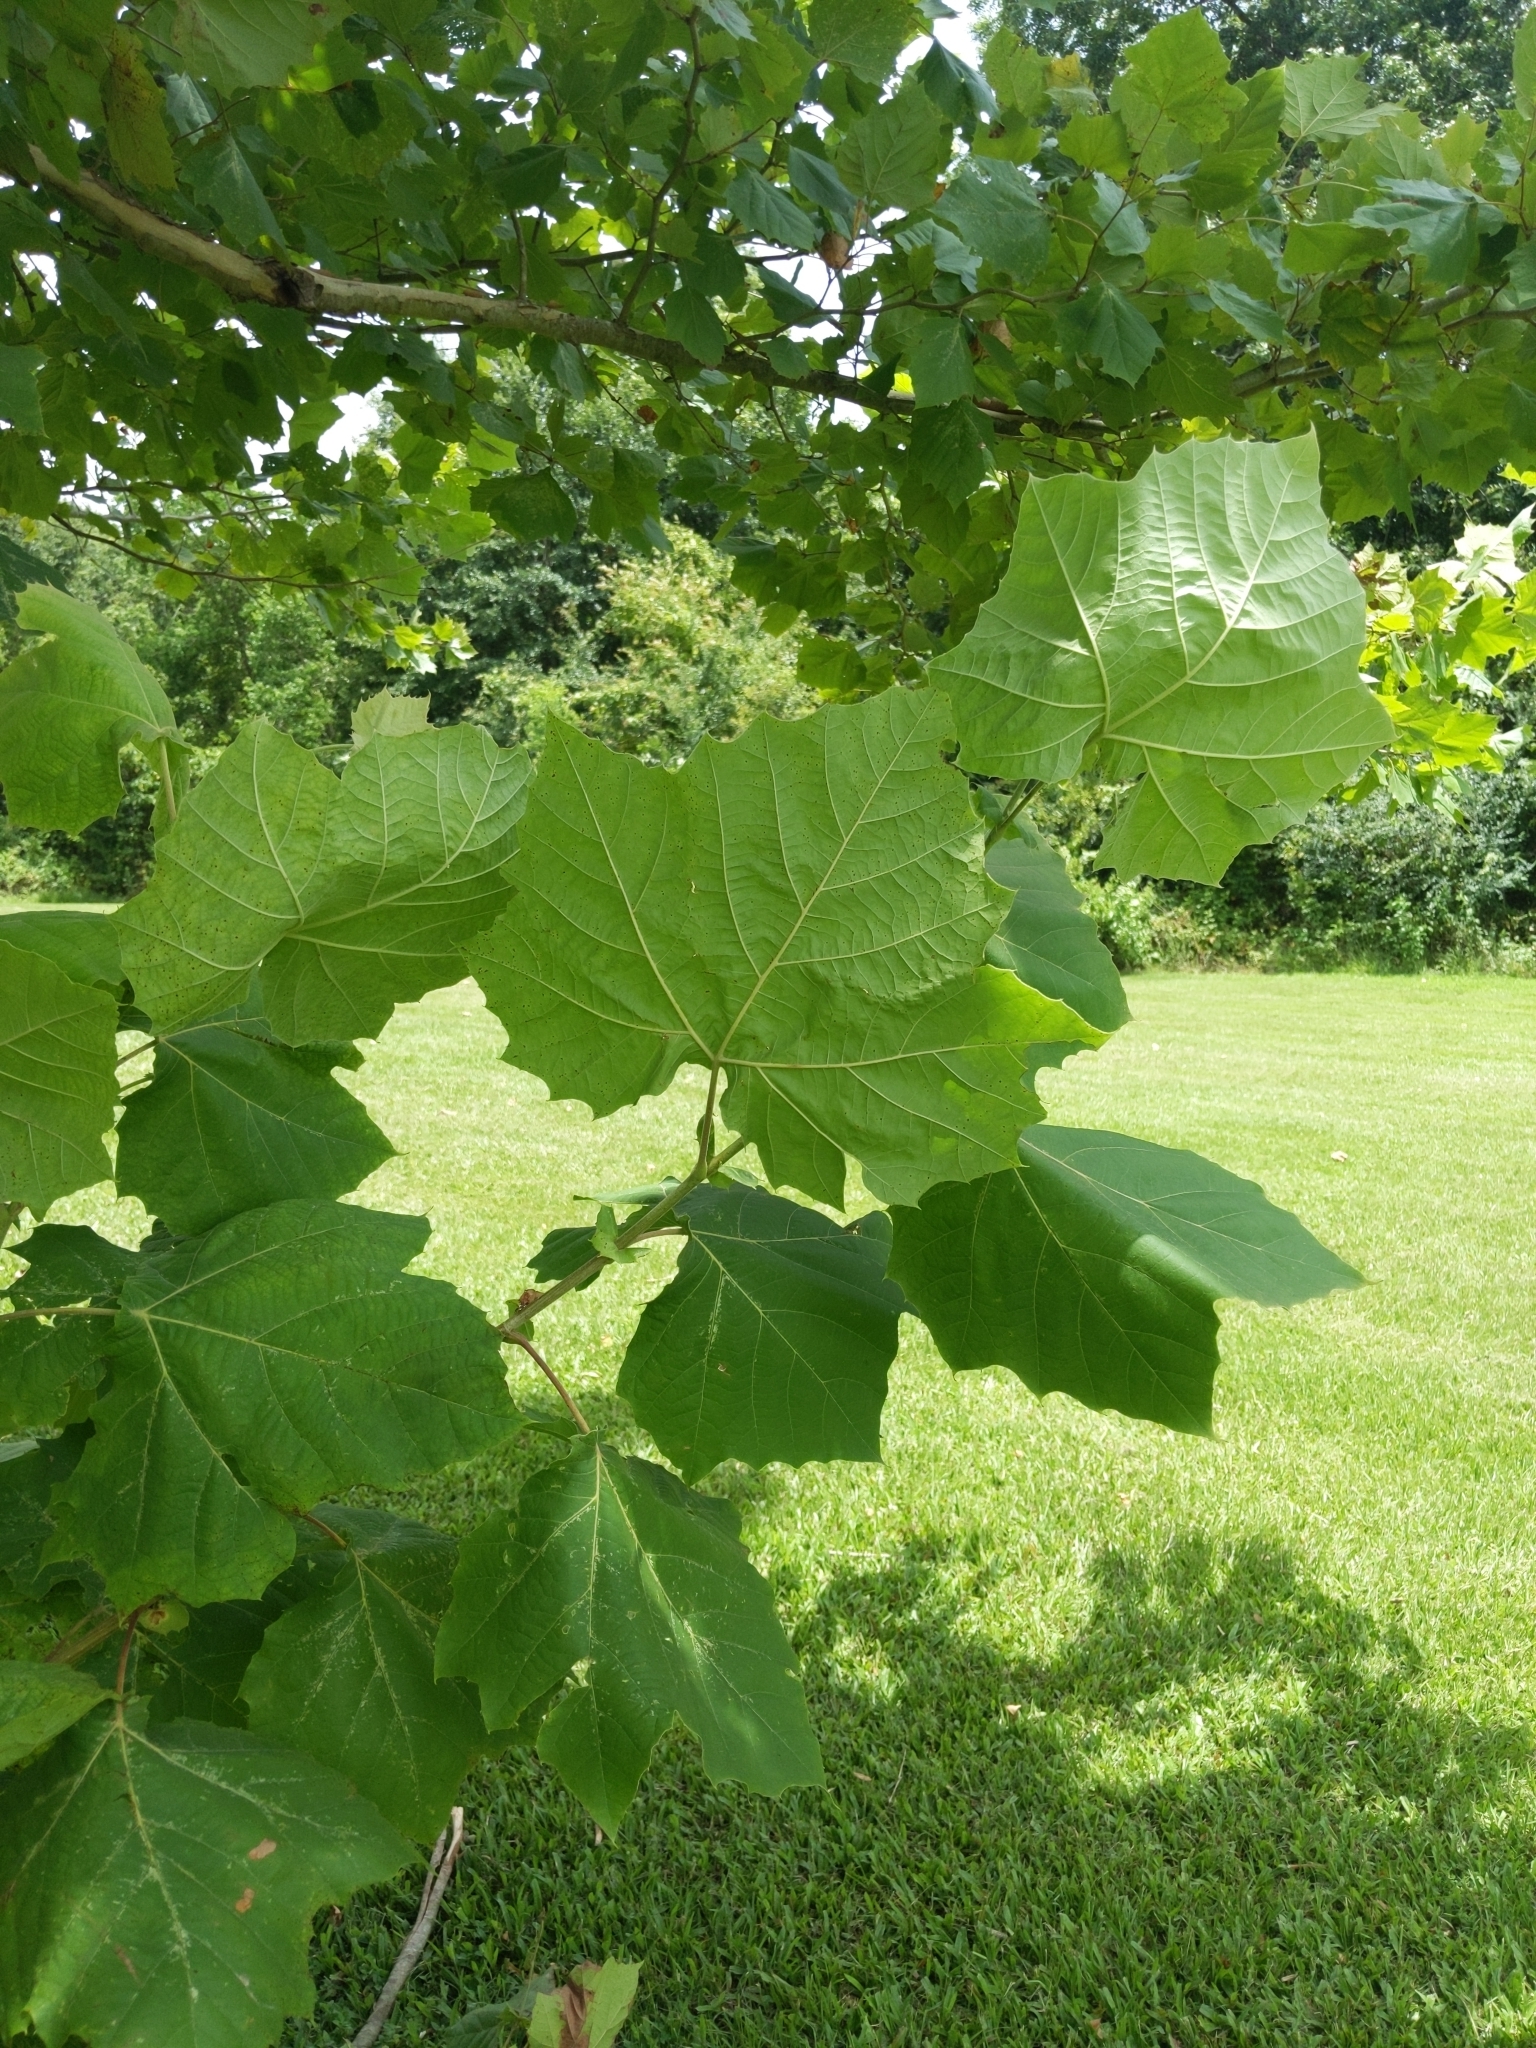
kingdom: Plantae
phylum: Tracheophyta
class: Magnoliopsida
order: Proteales
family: Platanaceae
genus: Platanus
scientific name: Platanus occidentalis
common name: American sycamore
